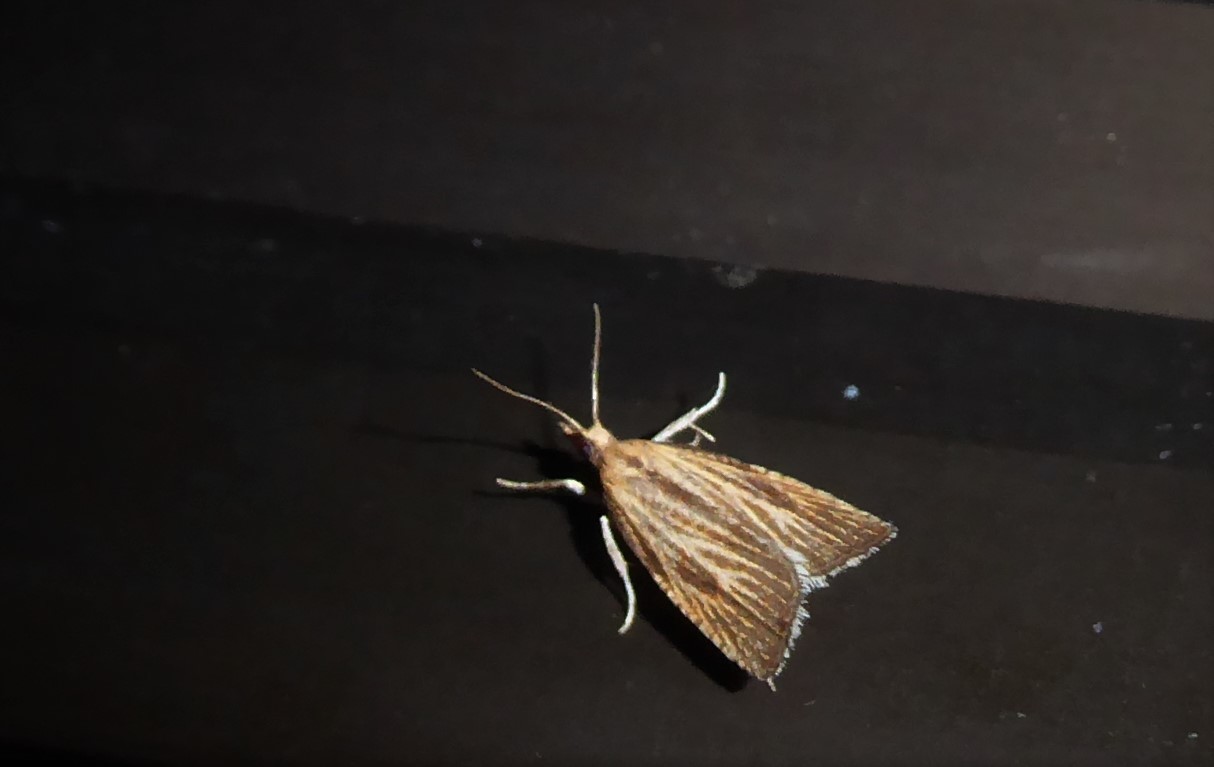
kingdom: Animalia
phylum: Arthropoda
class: Insecta
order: Lepidoptera
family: Tortricidae
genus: Catamacta
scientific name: Catamacta lotinana
